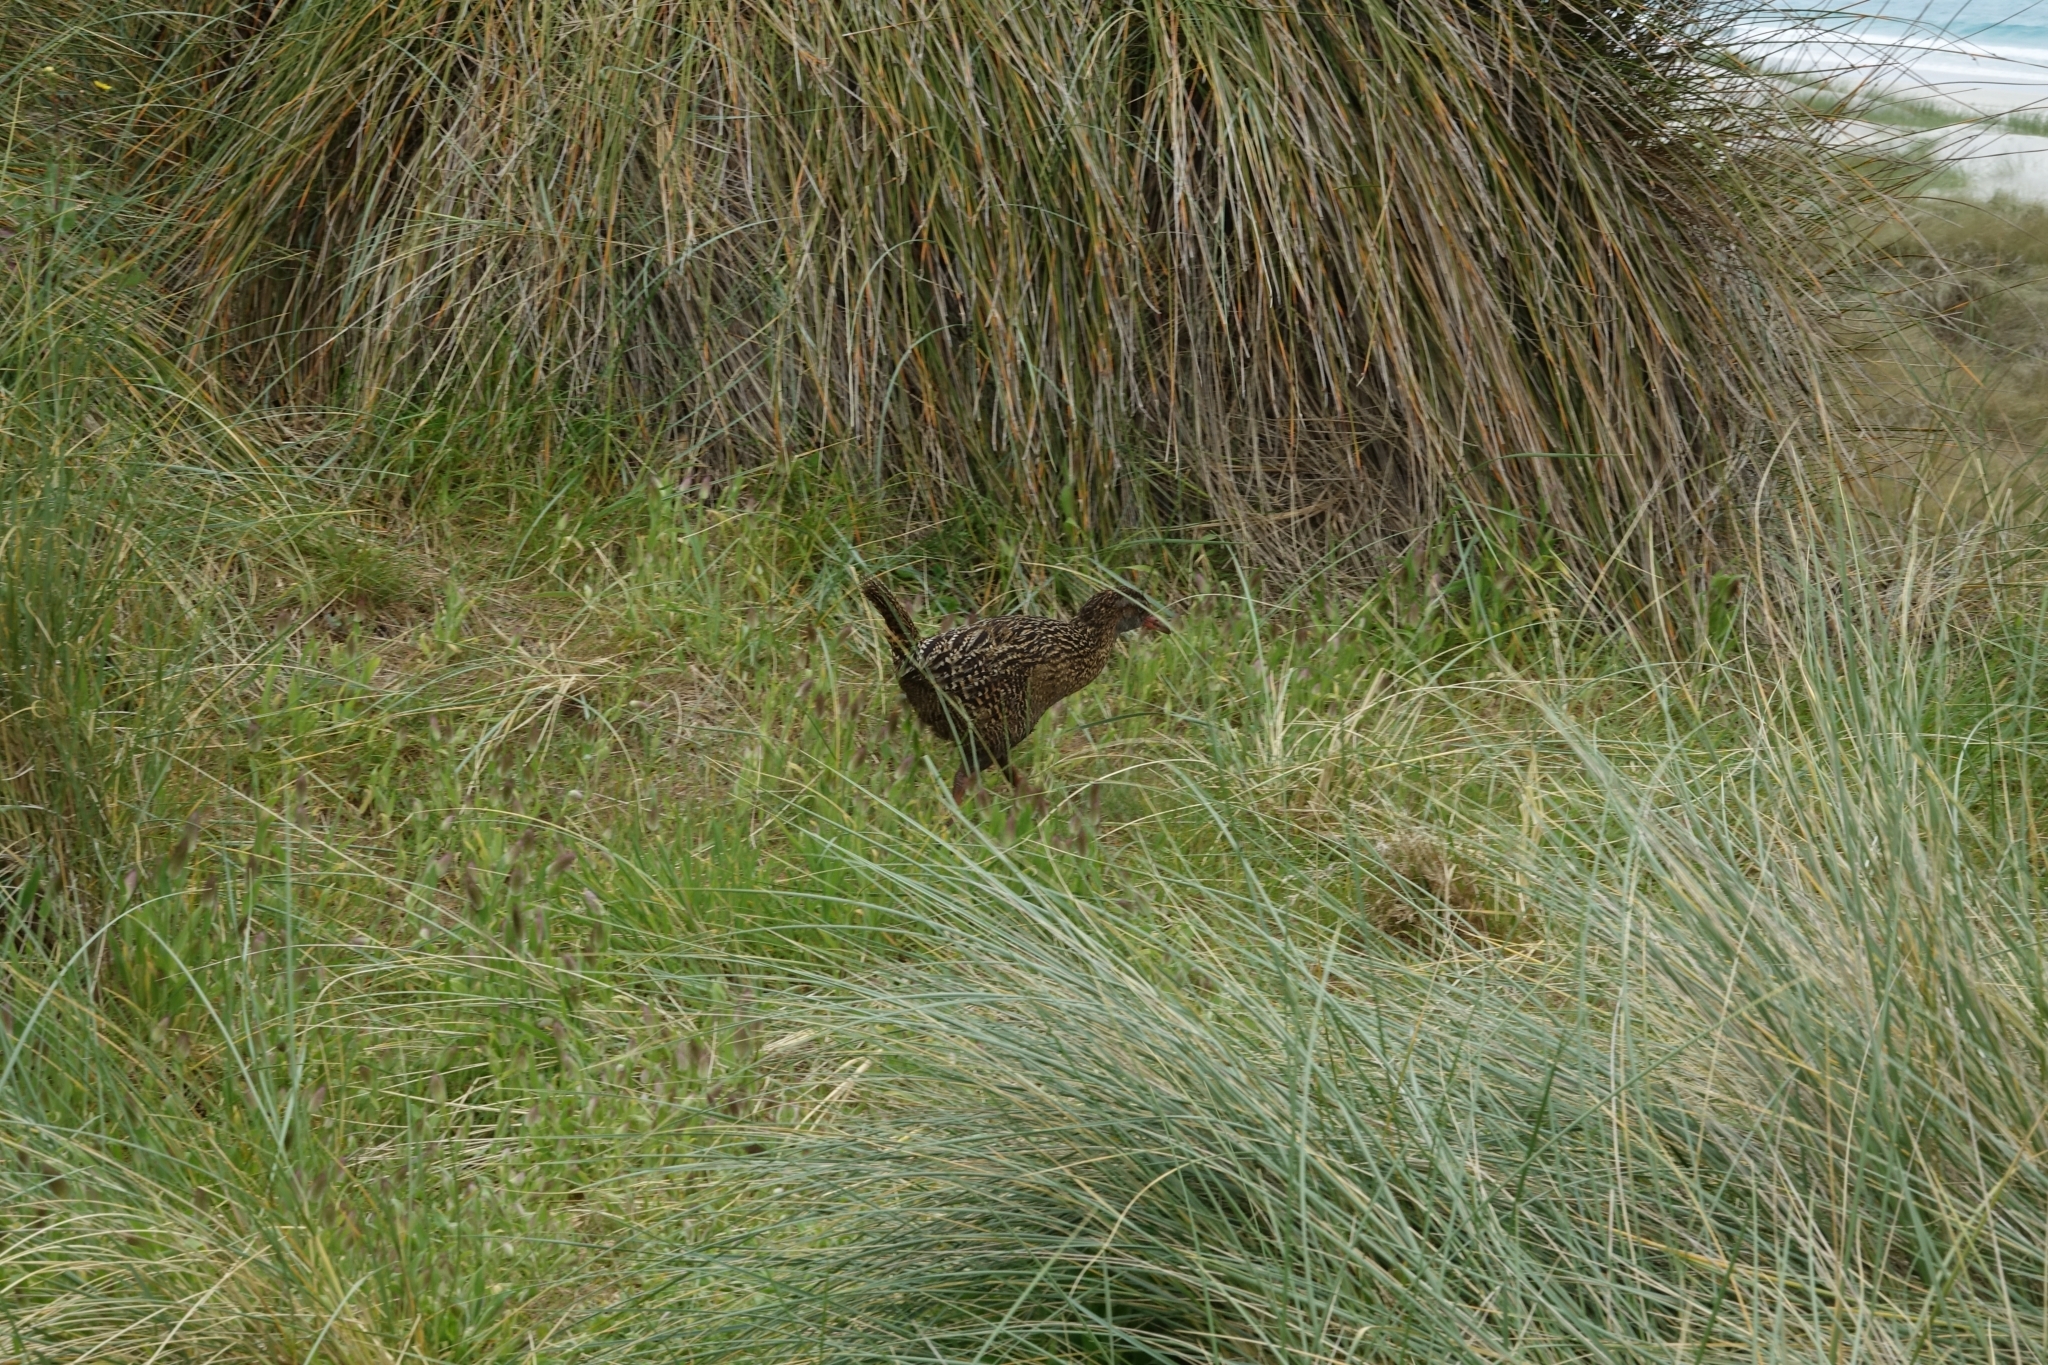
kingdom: Animalia
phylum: Chordata
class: Aves
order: Gruiformes
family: Rallidae
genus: Gallirallus
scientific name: Gallirallus australis
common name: Weka
